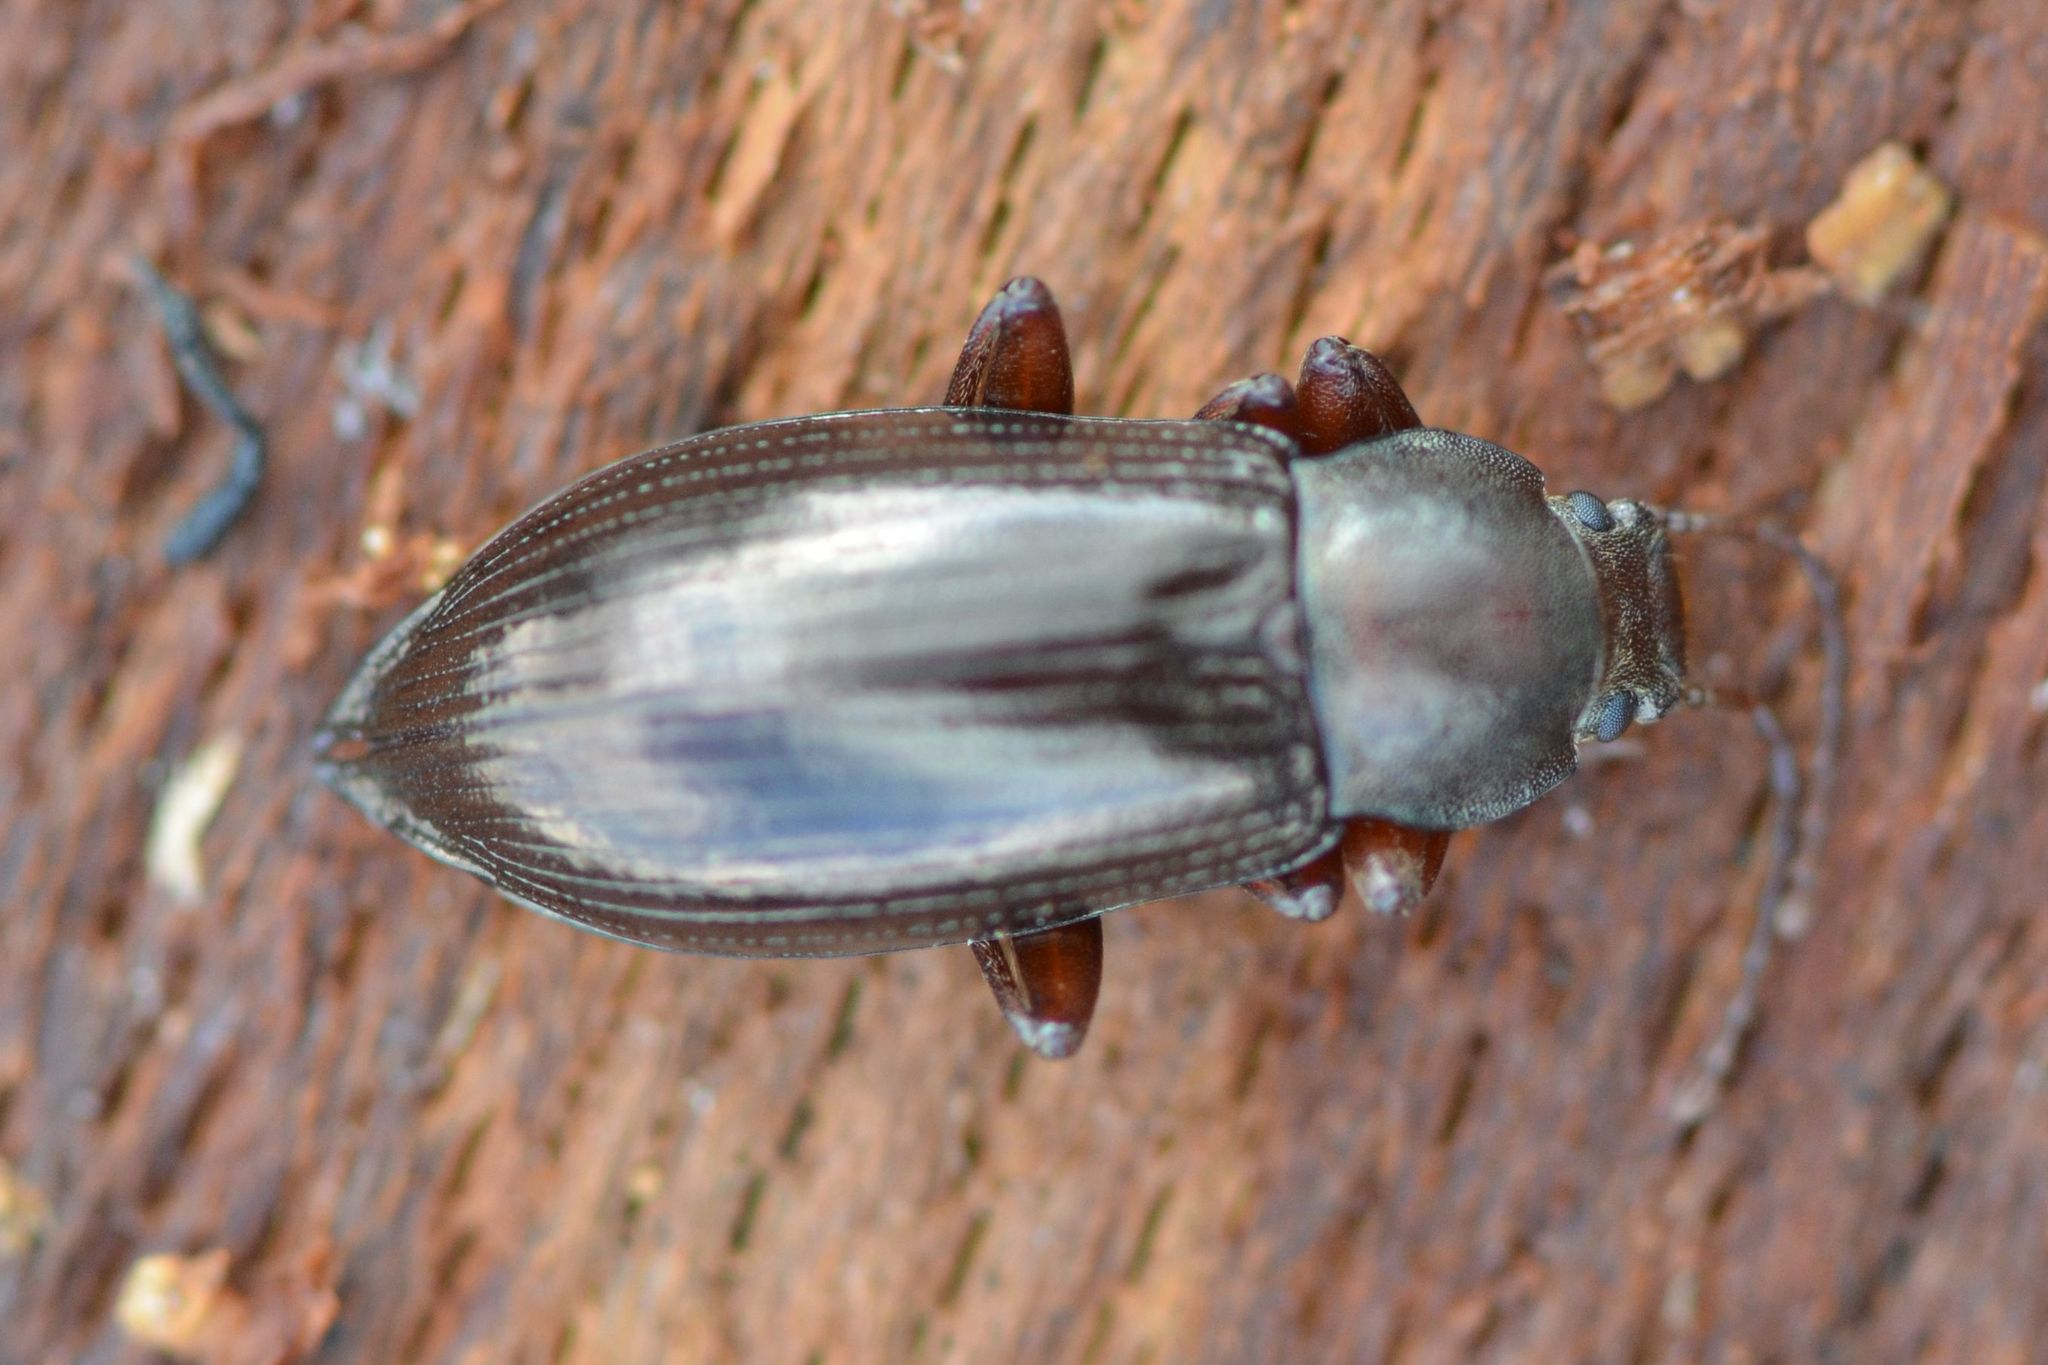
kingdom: Animalia
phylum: Arthropoda
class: Insecta
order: Coleoptera
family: Tenebrionidae
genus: Stenomax
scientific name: Stenomax aeneus
